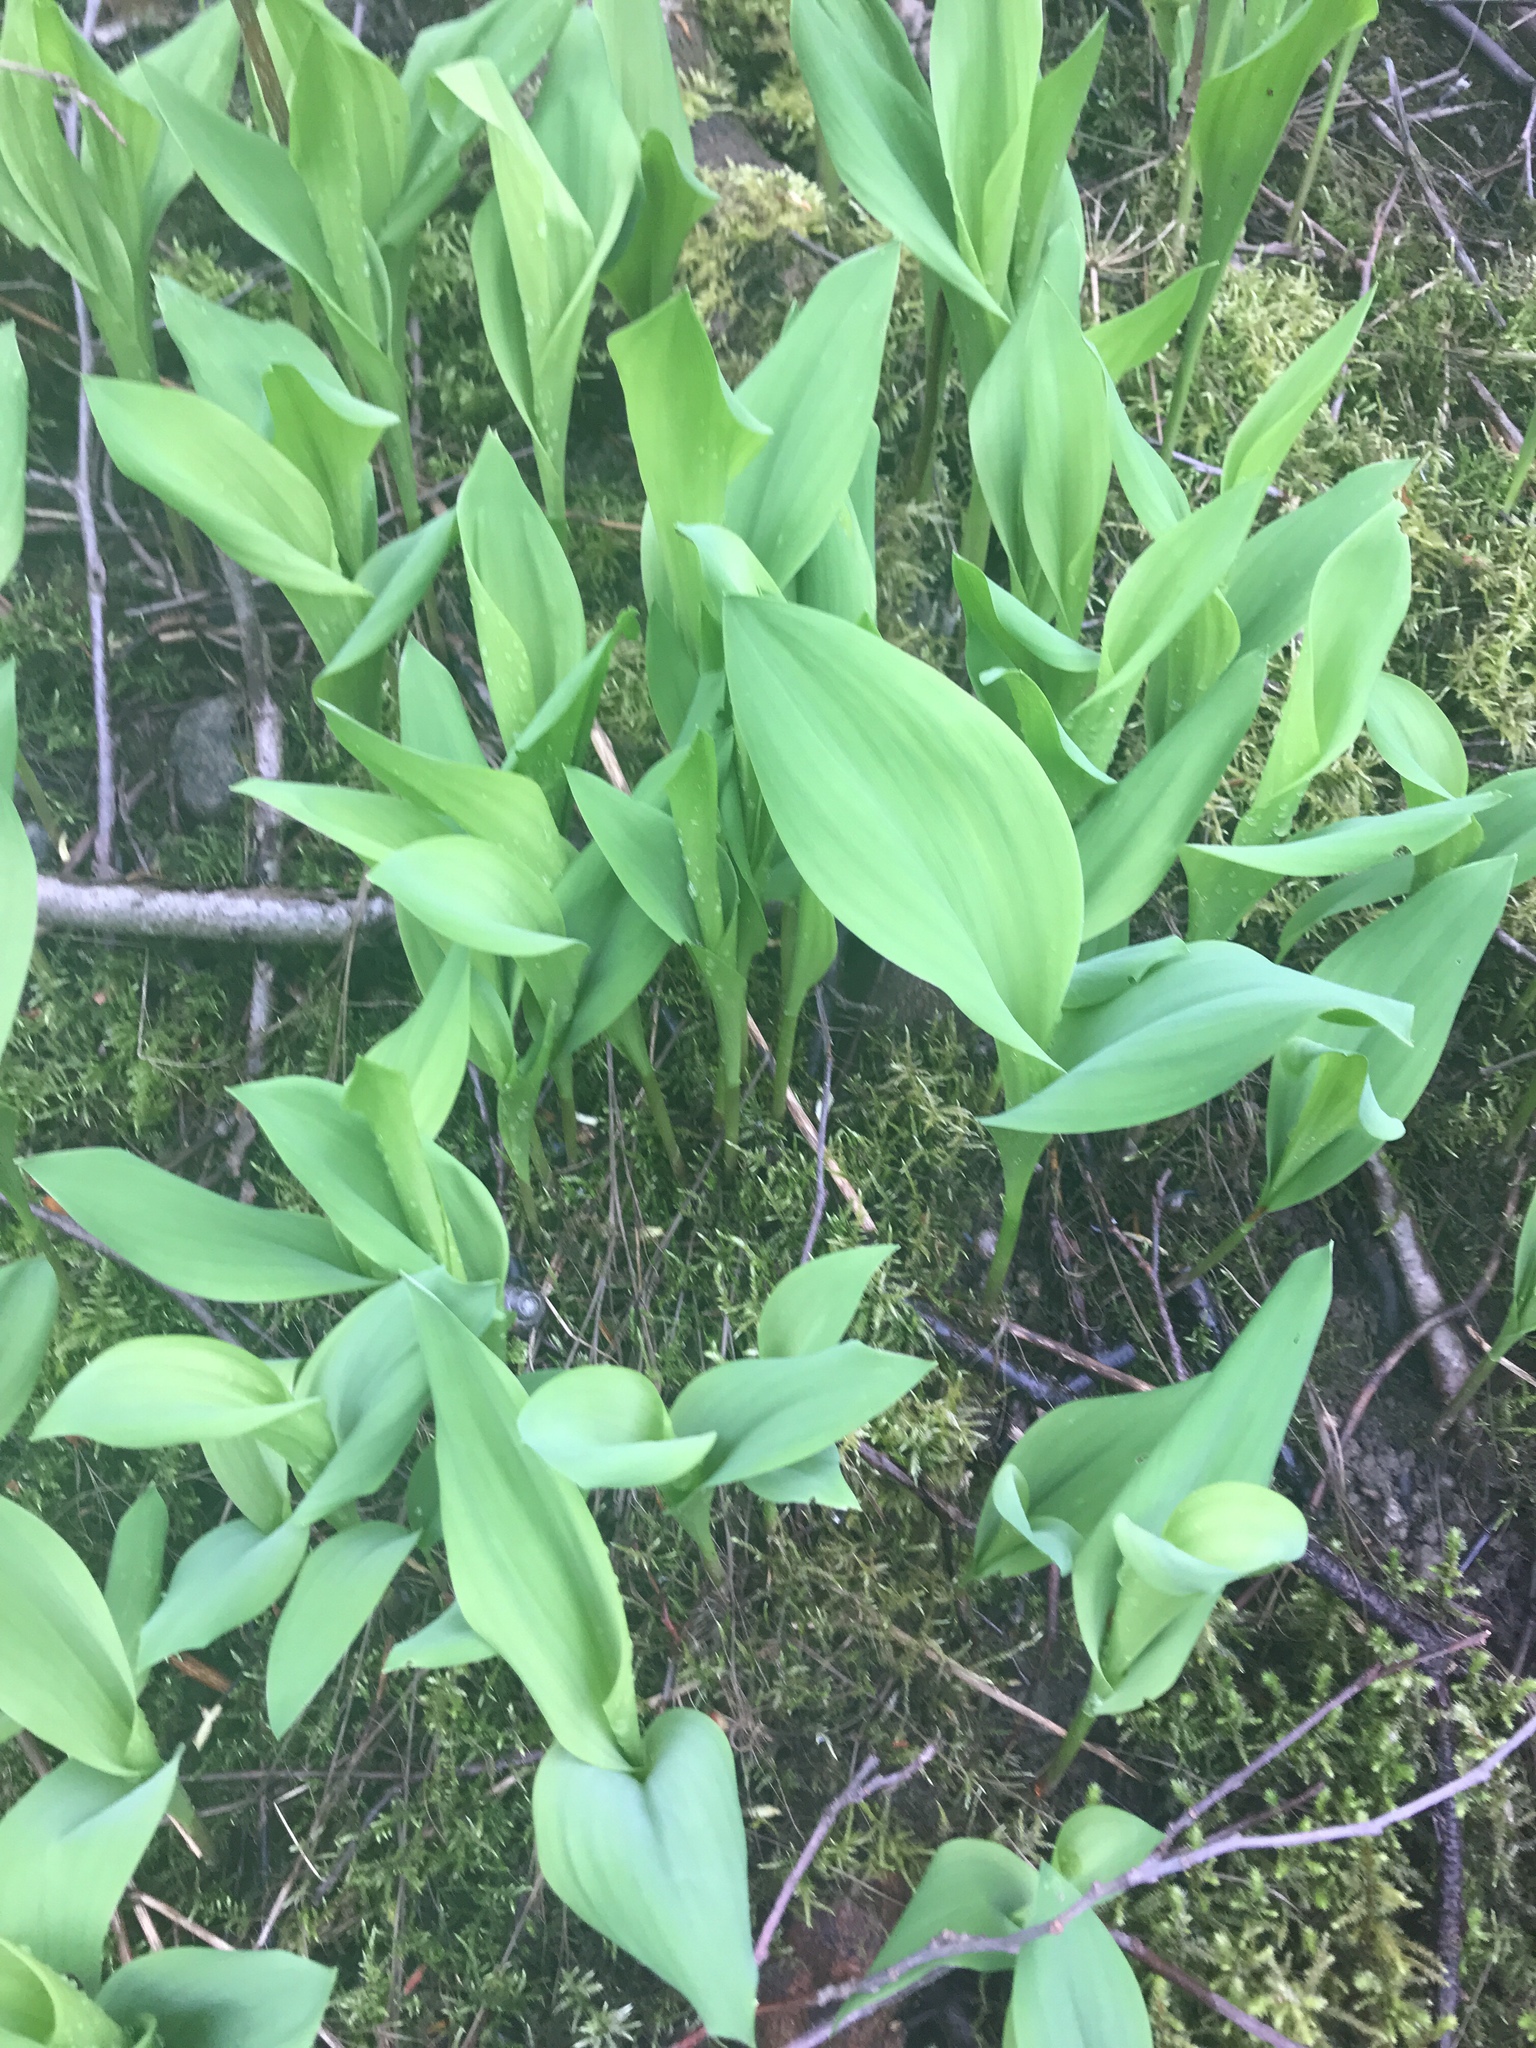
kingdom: Plantae
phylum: Tracheophyta
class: Liliopsida
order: Asparagales
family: Asparagaceae
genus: Convallaria
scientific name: Convallaria majalis
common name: Lily-of-the-valley
